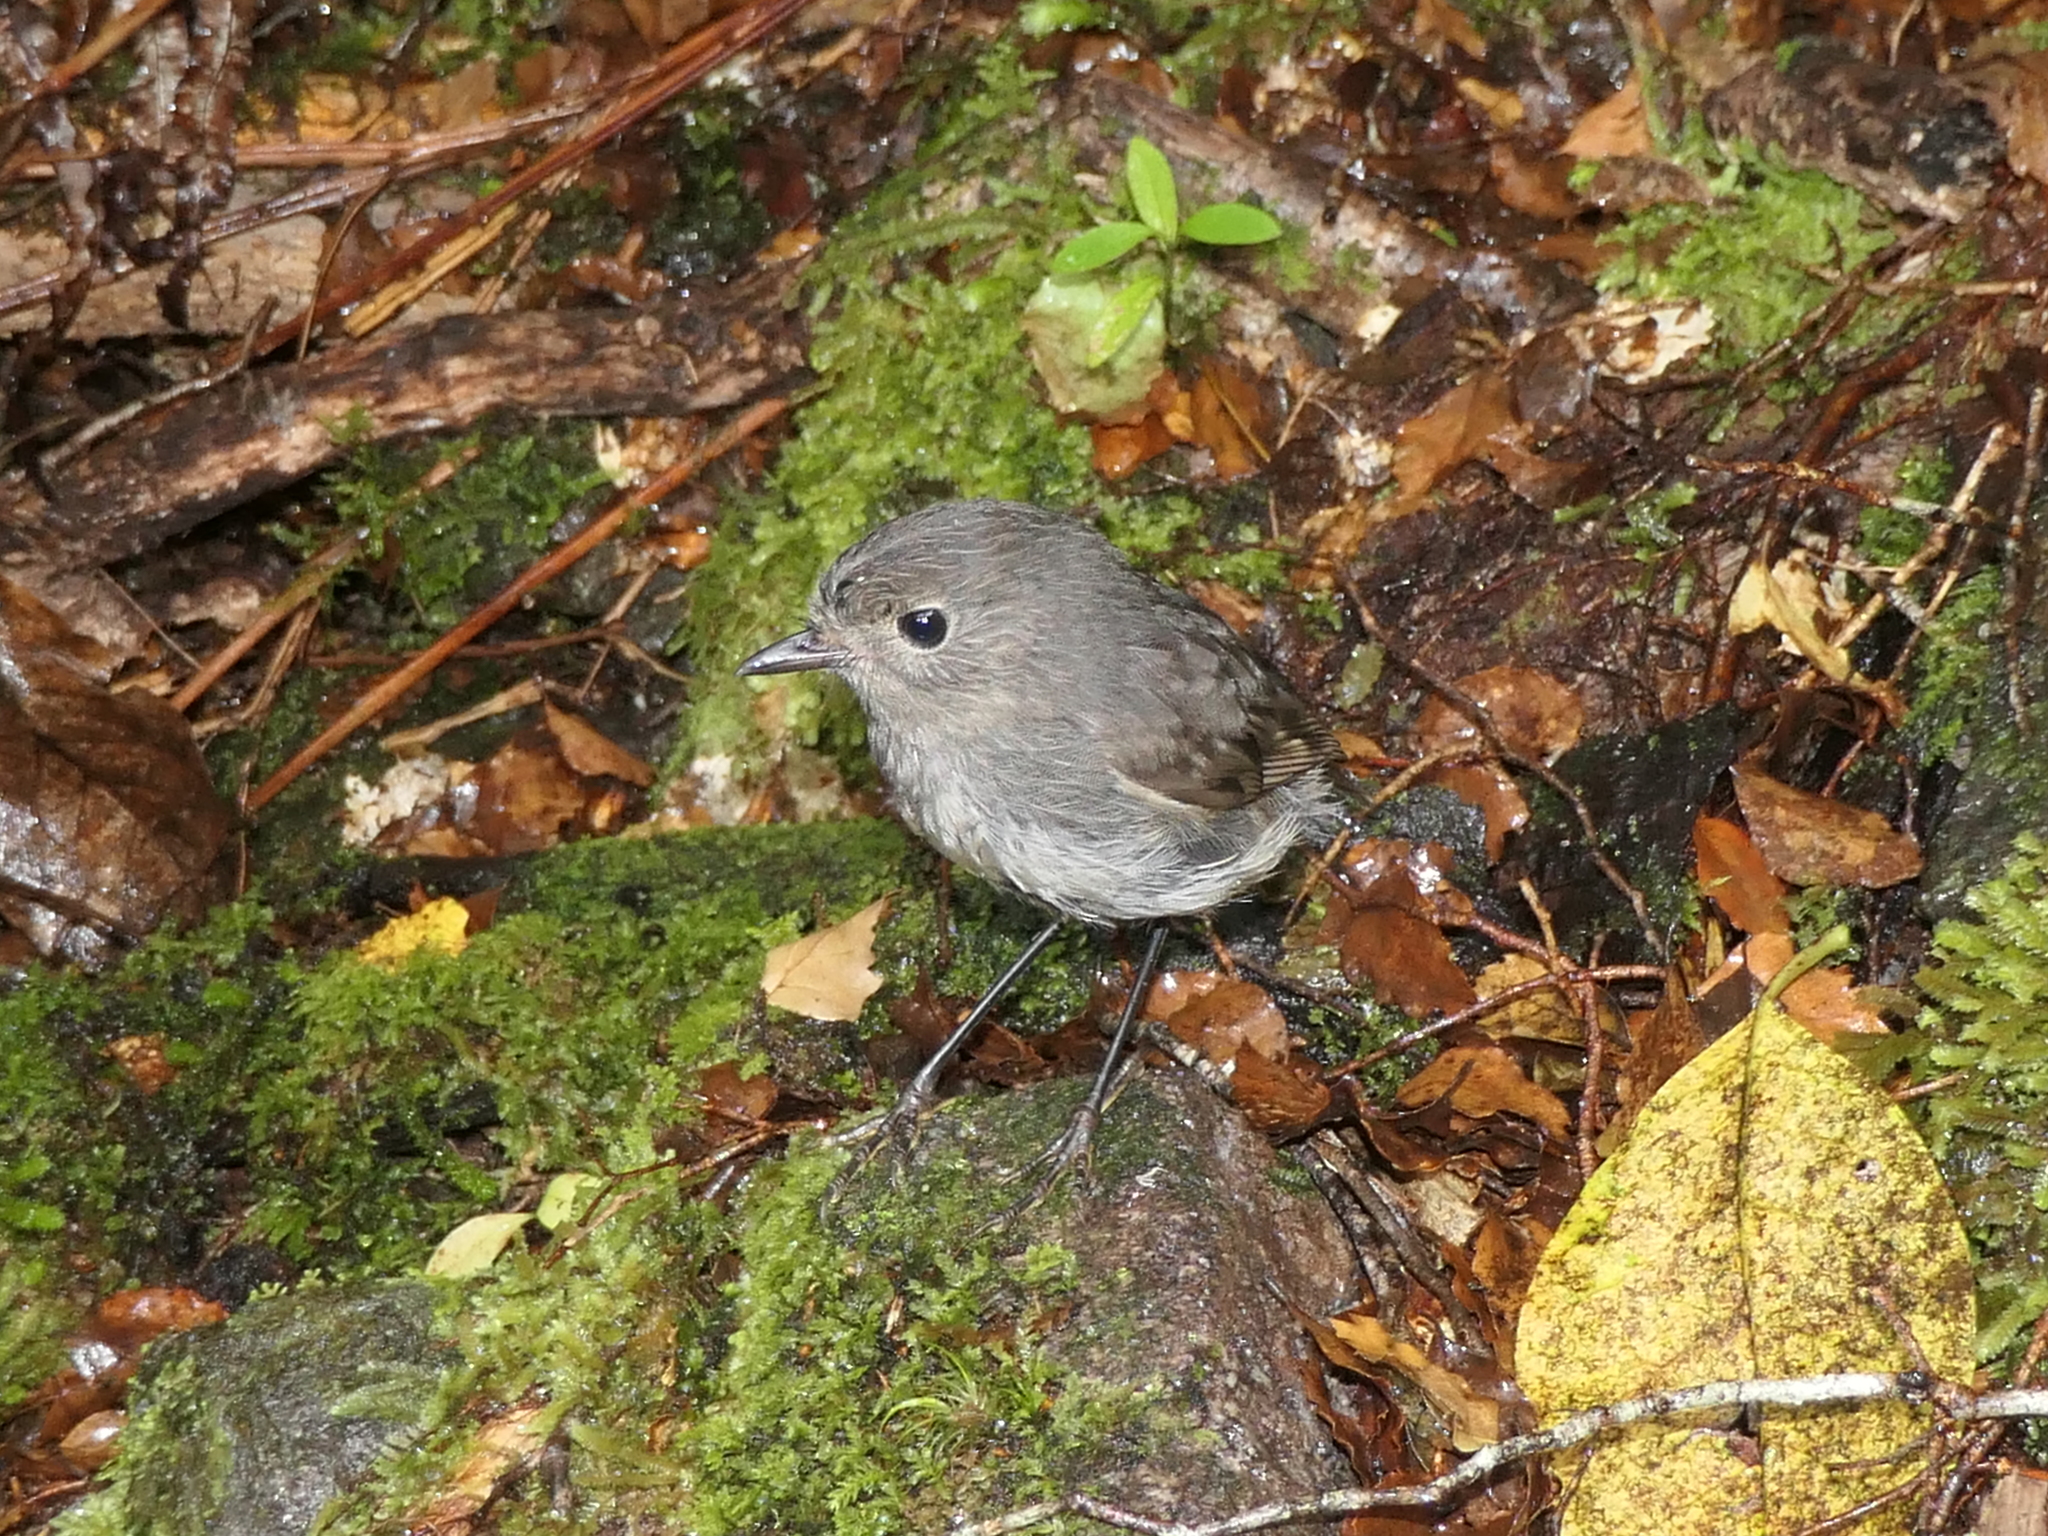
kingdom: Animalia
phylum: Chordata
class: Aves
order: Passeriformes
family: Petroicidae
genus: Petroica
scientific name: Petroica australis
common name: New zealand robin
